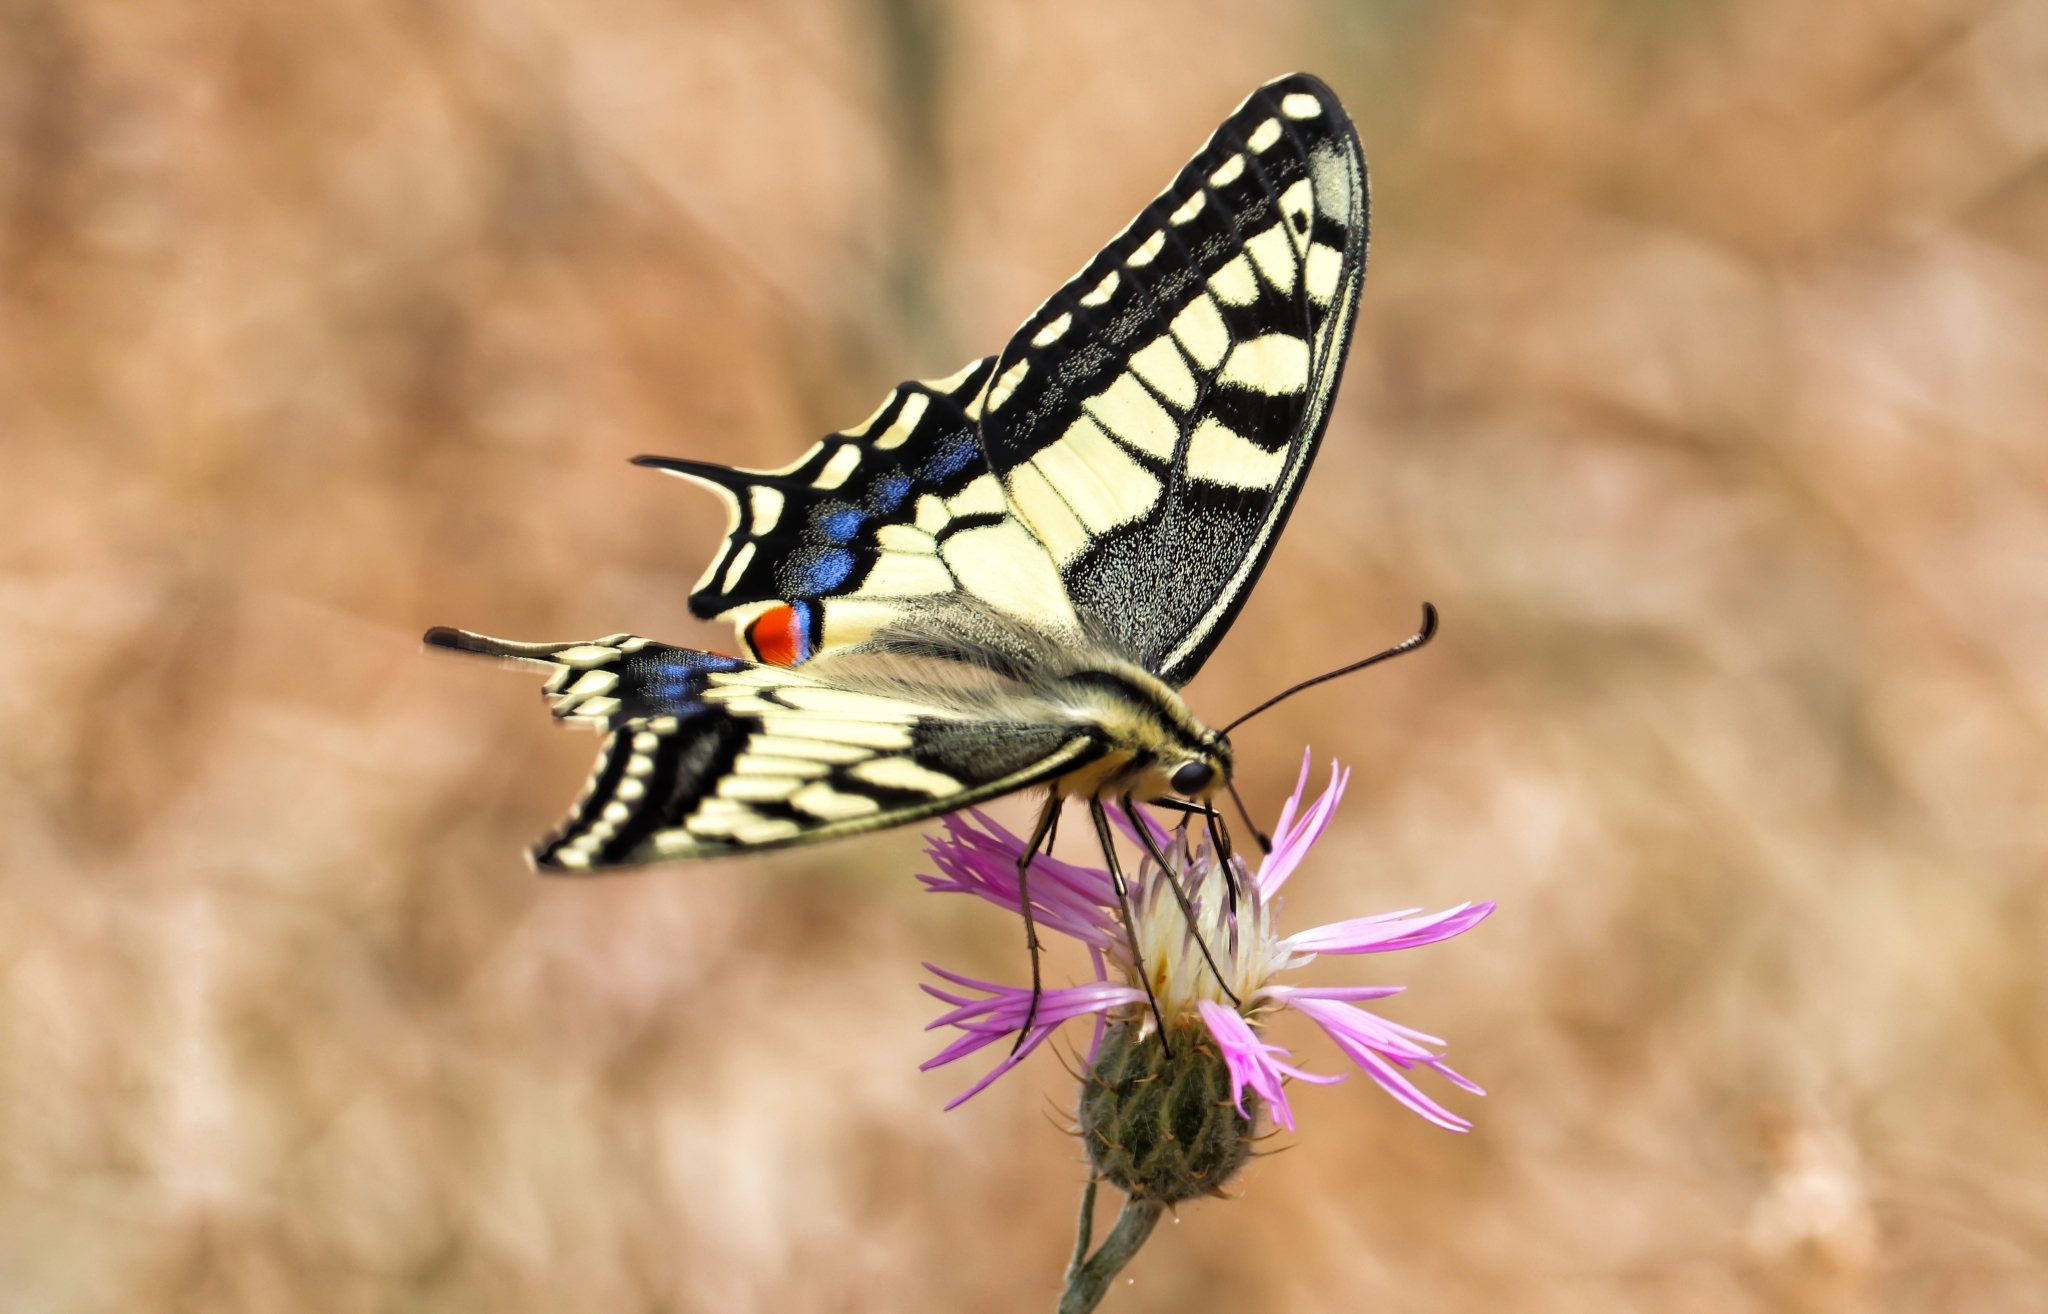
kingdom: Animalia
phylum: Arthropoda
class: Insecta
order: Lepidoptera
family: Papilionidae
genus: Papilio
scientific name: Papilio machaon
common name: Swallowtail
